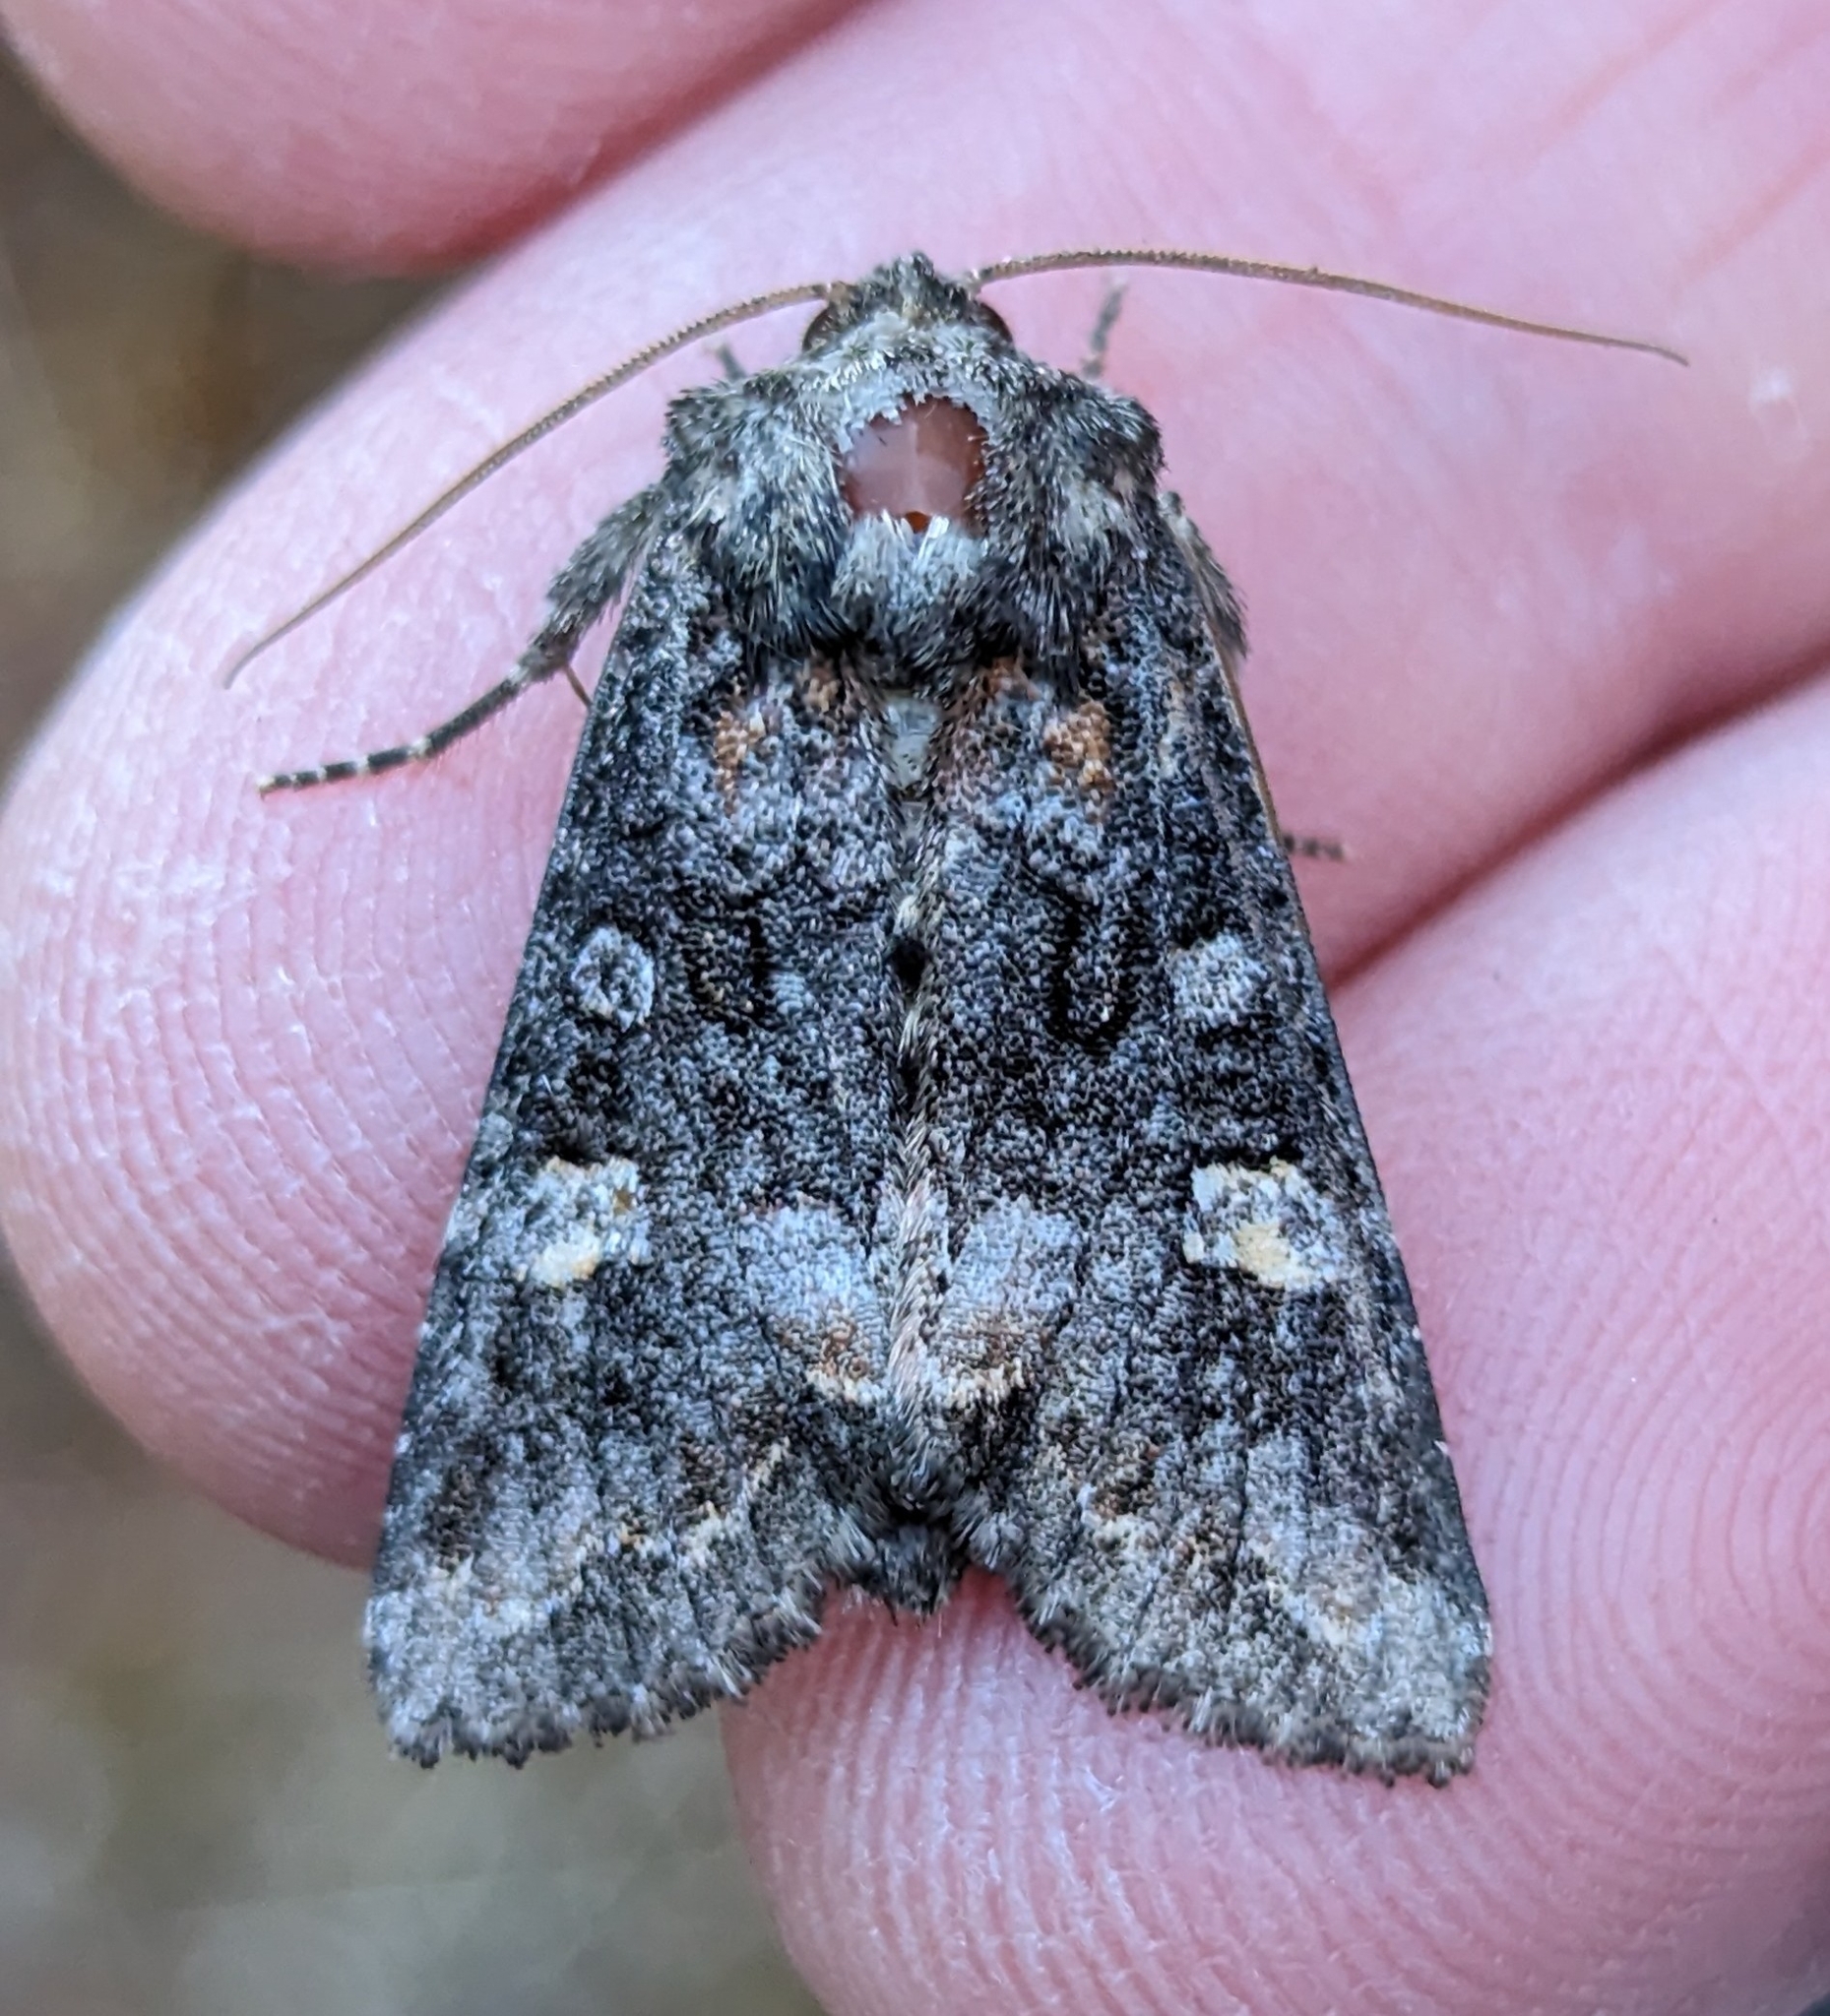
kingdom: Animalia
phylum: Arthropoda
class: Insecta
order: Lepidoptera
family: Noctuidae
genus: Spiramater
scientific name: Spiramater lutra
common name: Otter spiramater moth
